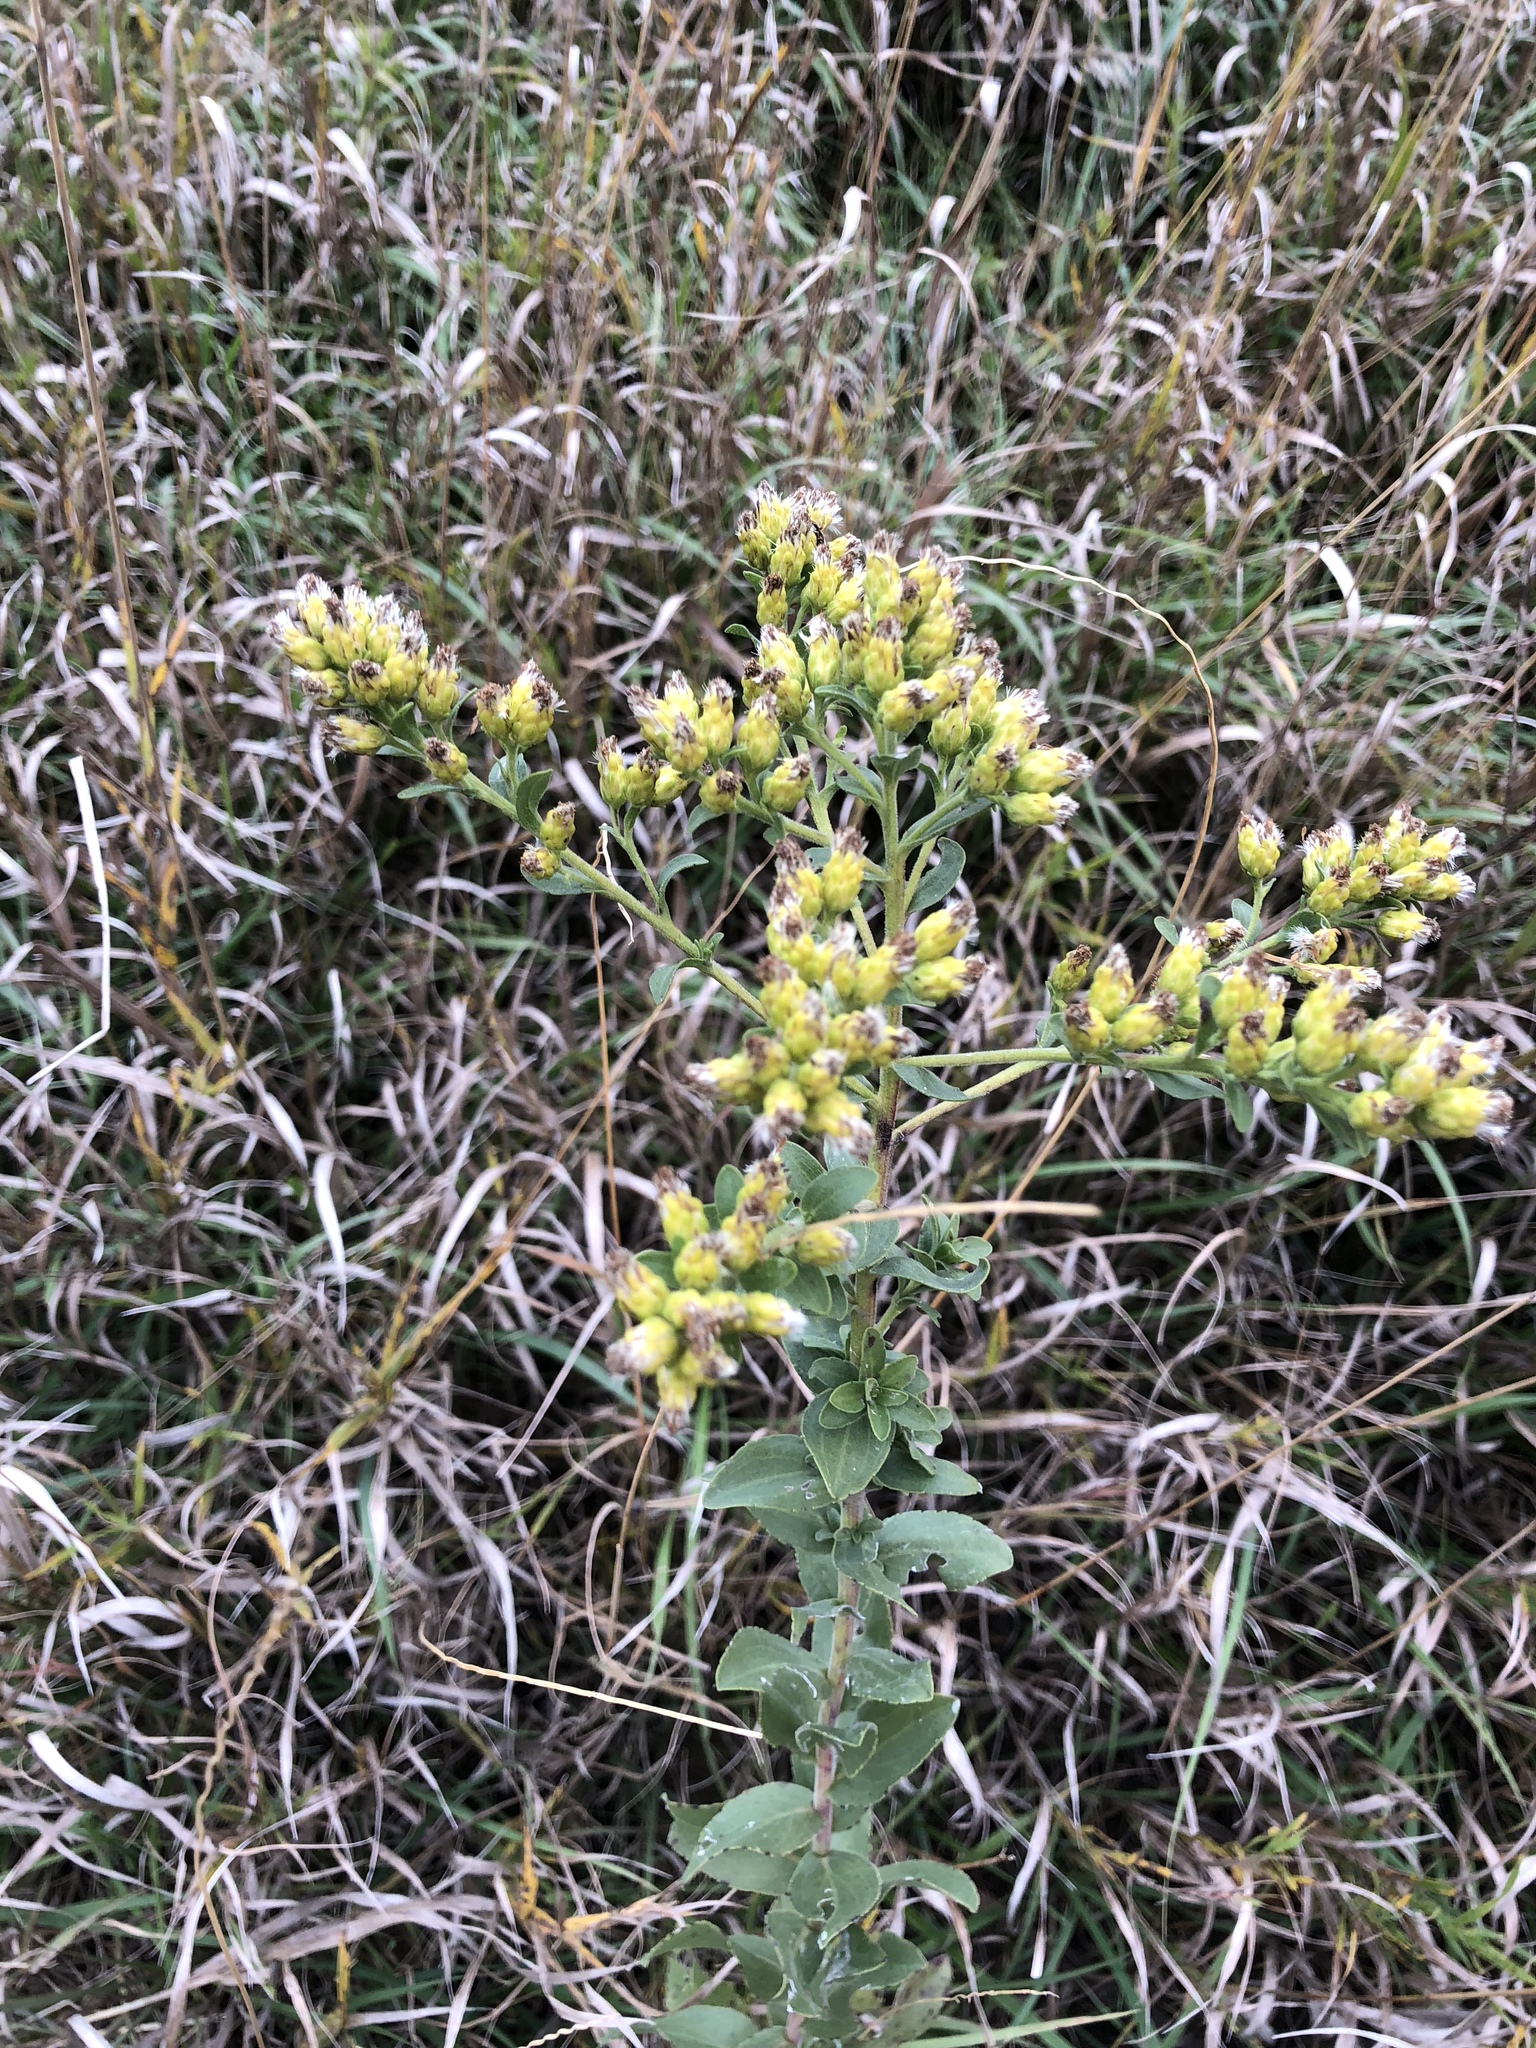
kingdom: Plantae
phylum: Tracheophyta
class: Magnoliopsida
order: Asterales
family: Asteraceae
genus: Solidago
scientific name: Solidago rigida
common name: Rigid goldenrod
